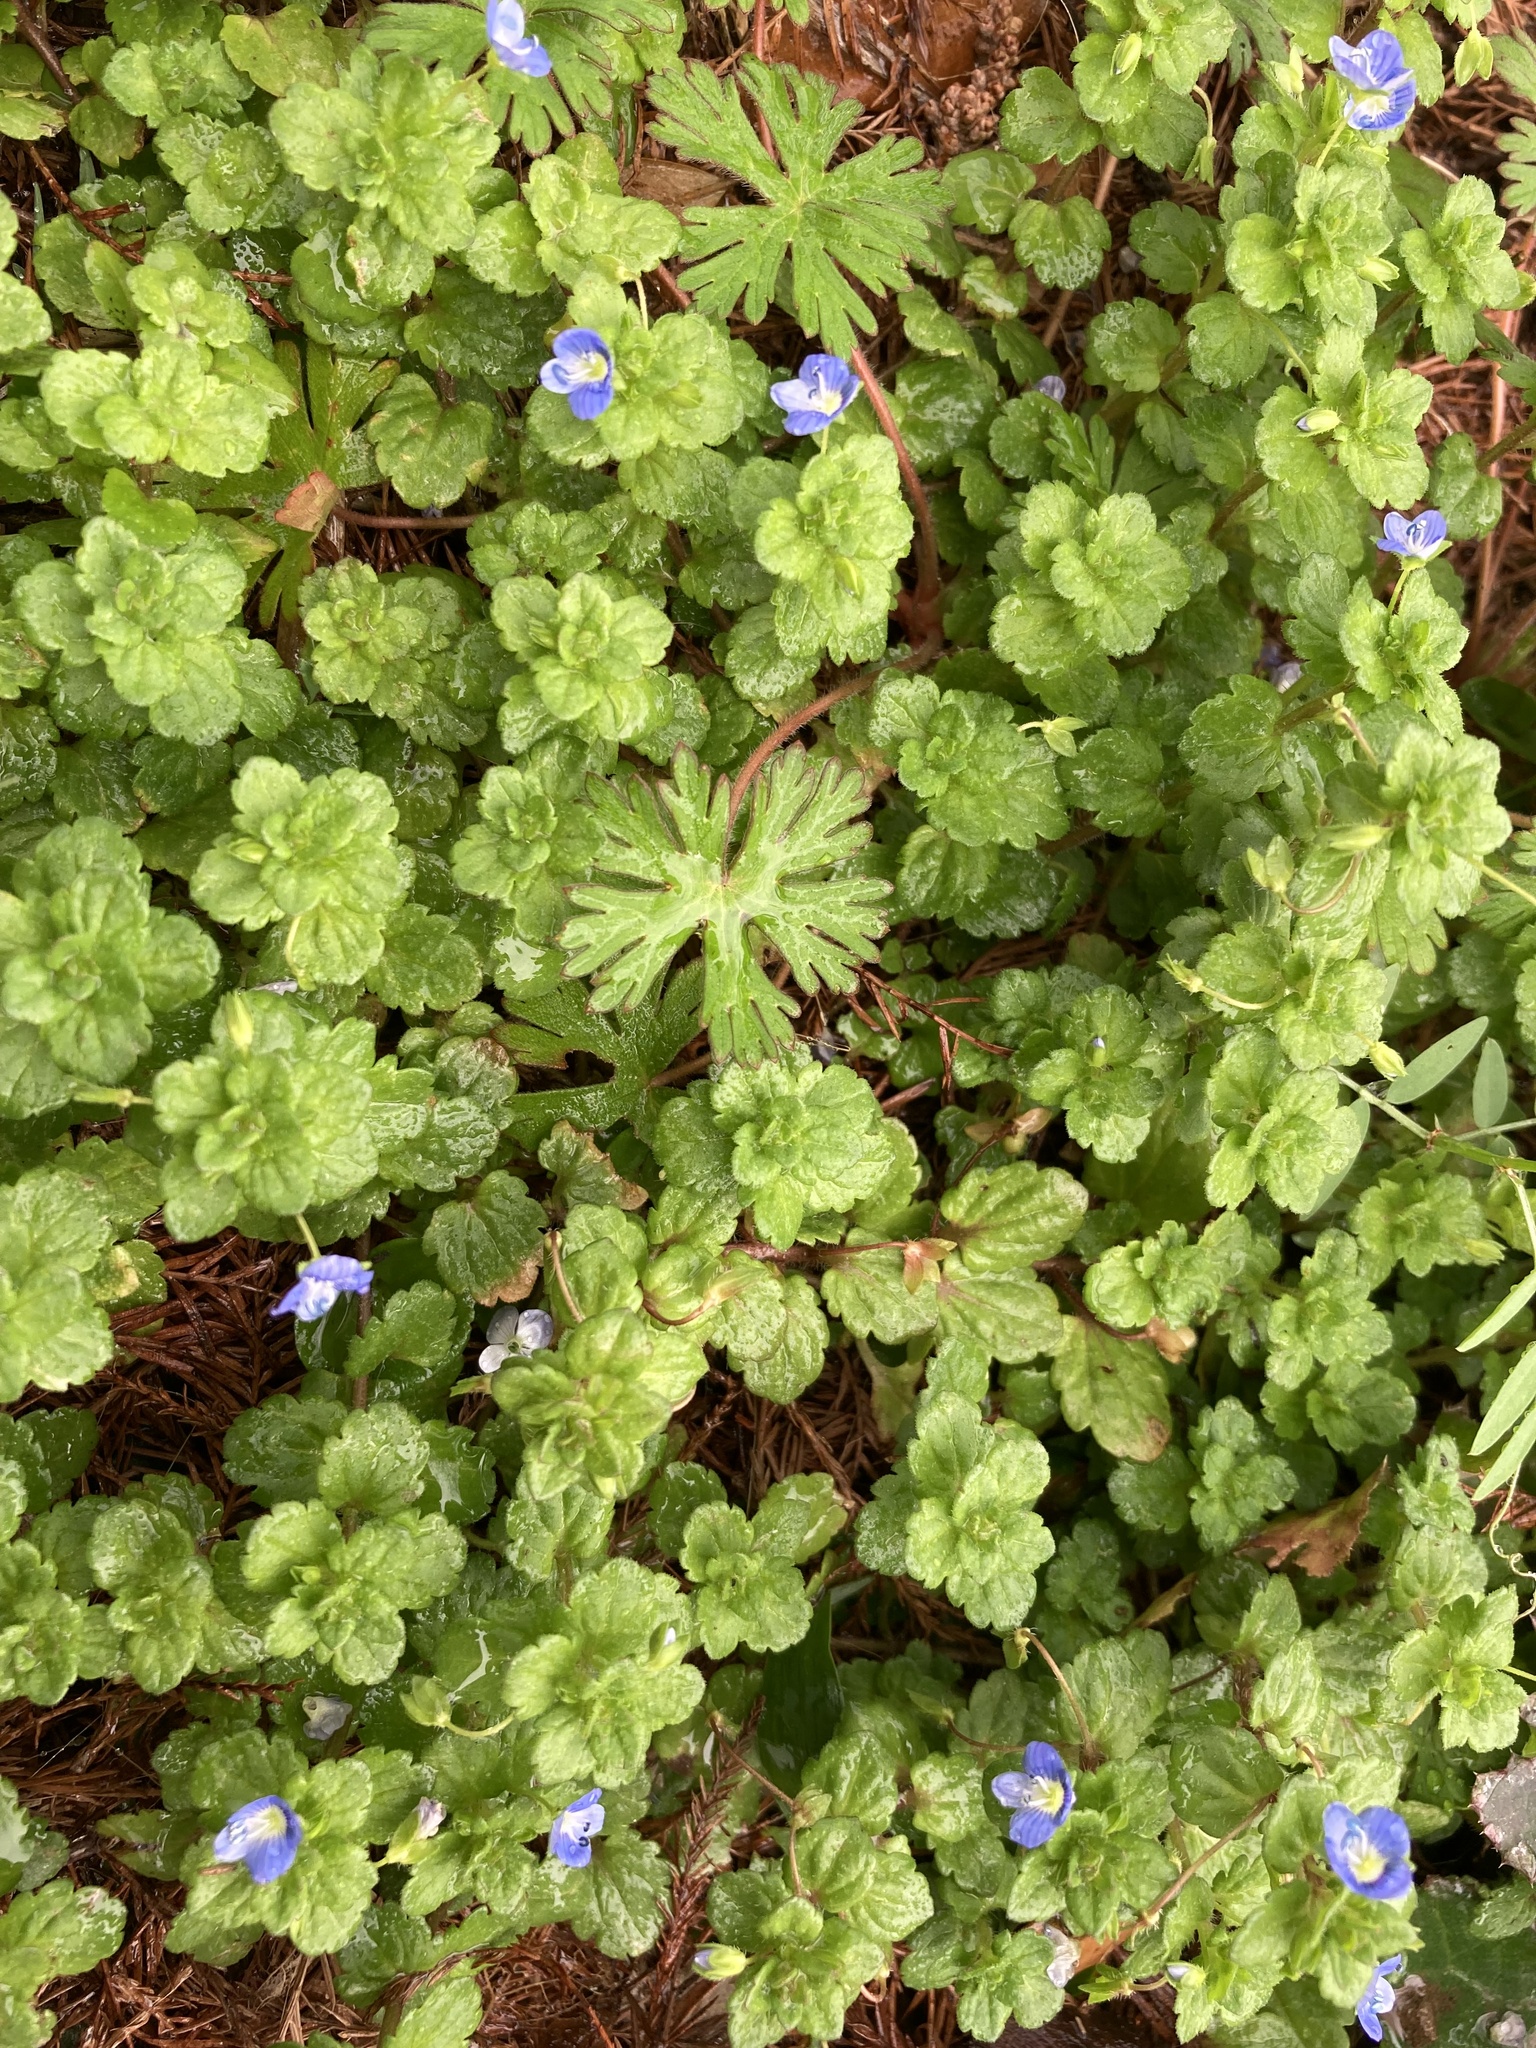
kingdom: Plantae
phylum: Tracheophyta
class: Magnoliopsida
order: Lamiales
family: Plantaginaceae
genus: Veronica
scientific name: Veronica persica
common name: Common field-speedwell
